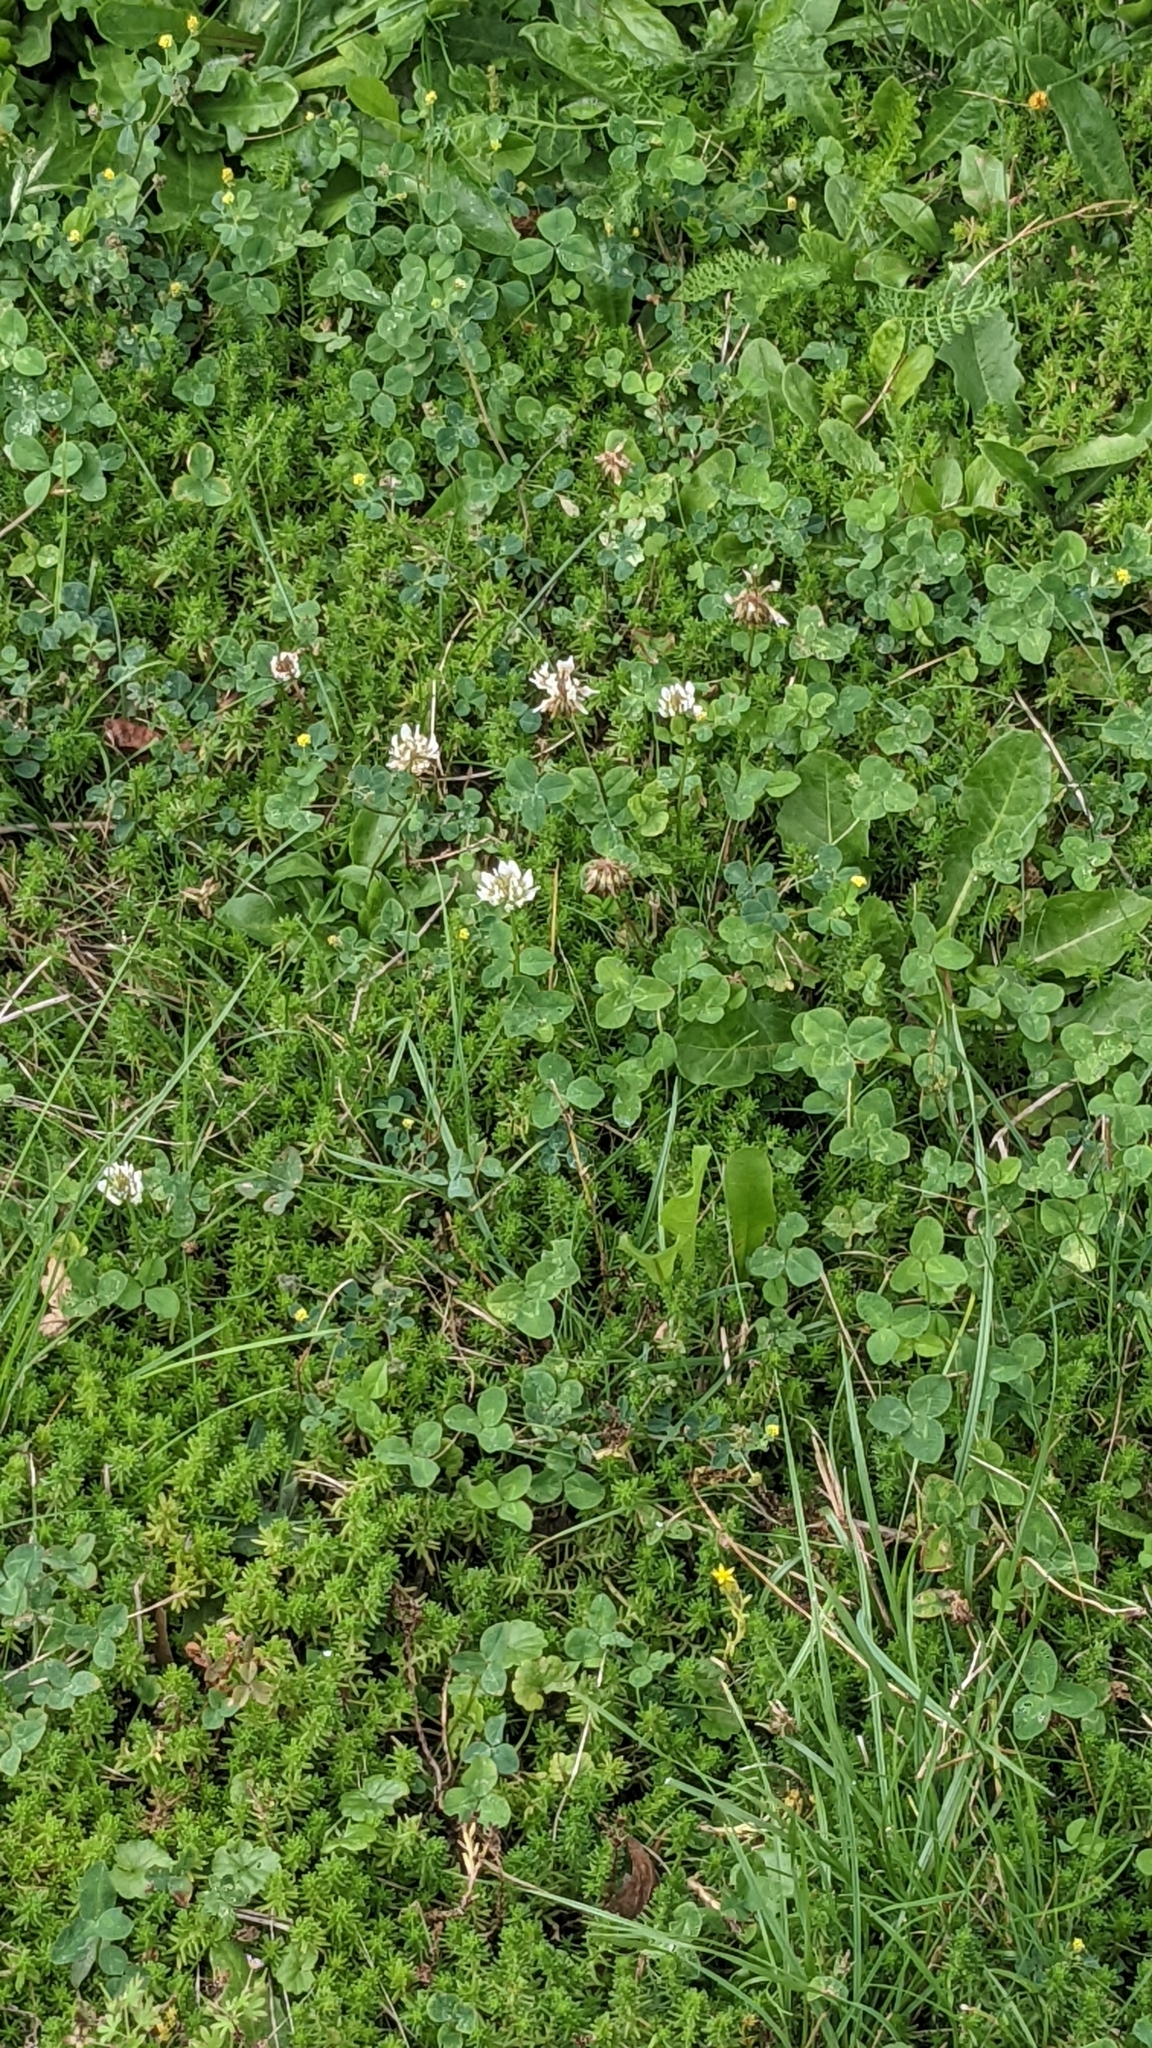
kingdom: Plantae
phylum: Tracheophyta
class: Magnoliopsida
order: Fabales
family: Fabaceae
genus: Trifolium
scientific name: Trifolium repens
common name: White clover
